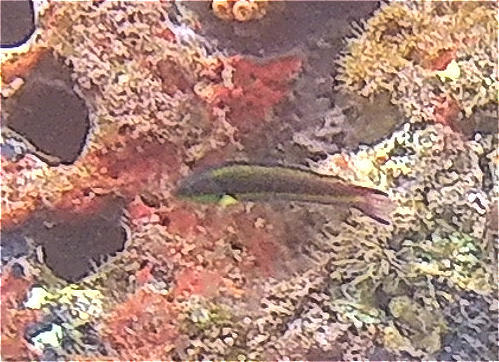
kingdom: Animalia
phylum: Chordata
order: Perciformes
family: Labridae
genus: Thalassoma
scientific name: Thalassoma lucasanum
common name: Cortez rainbow wrasse
